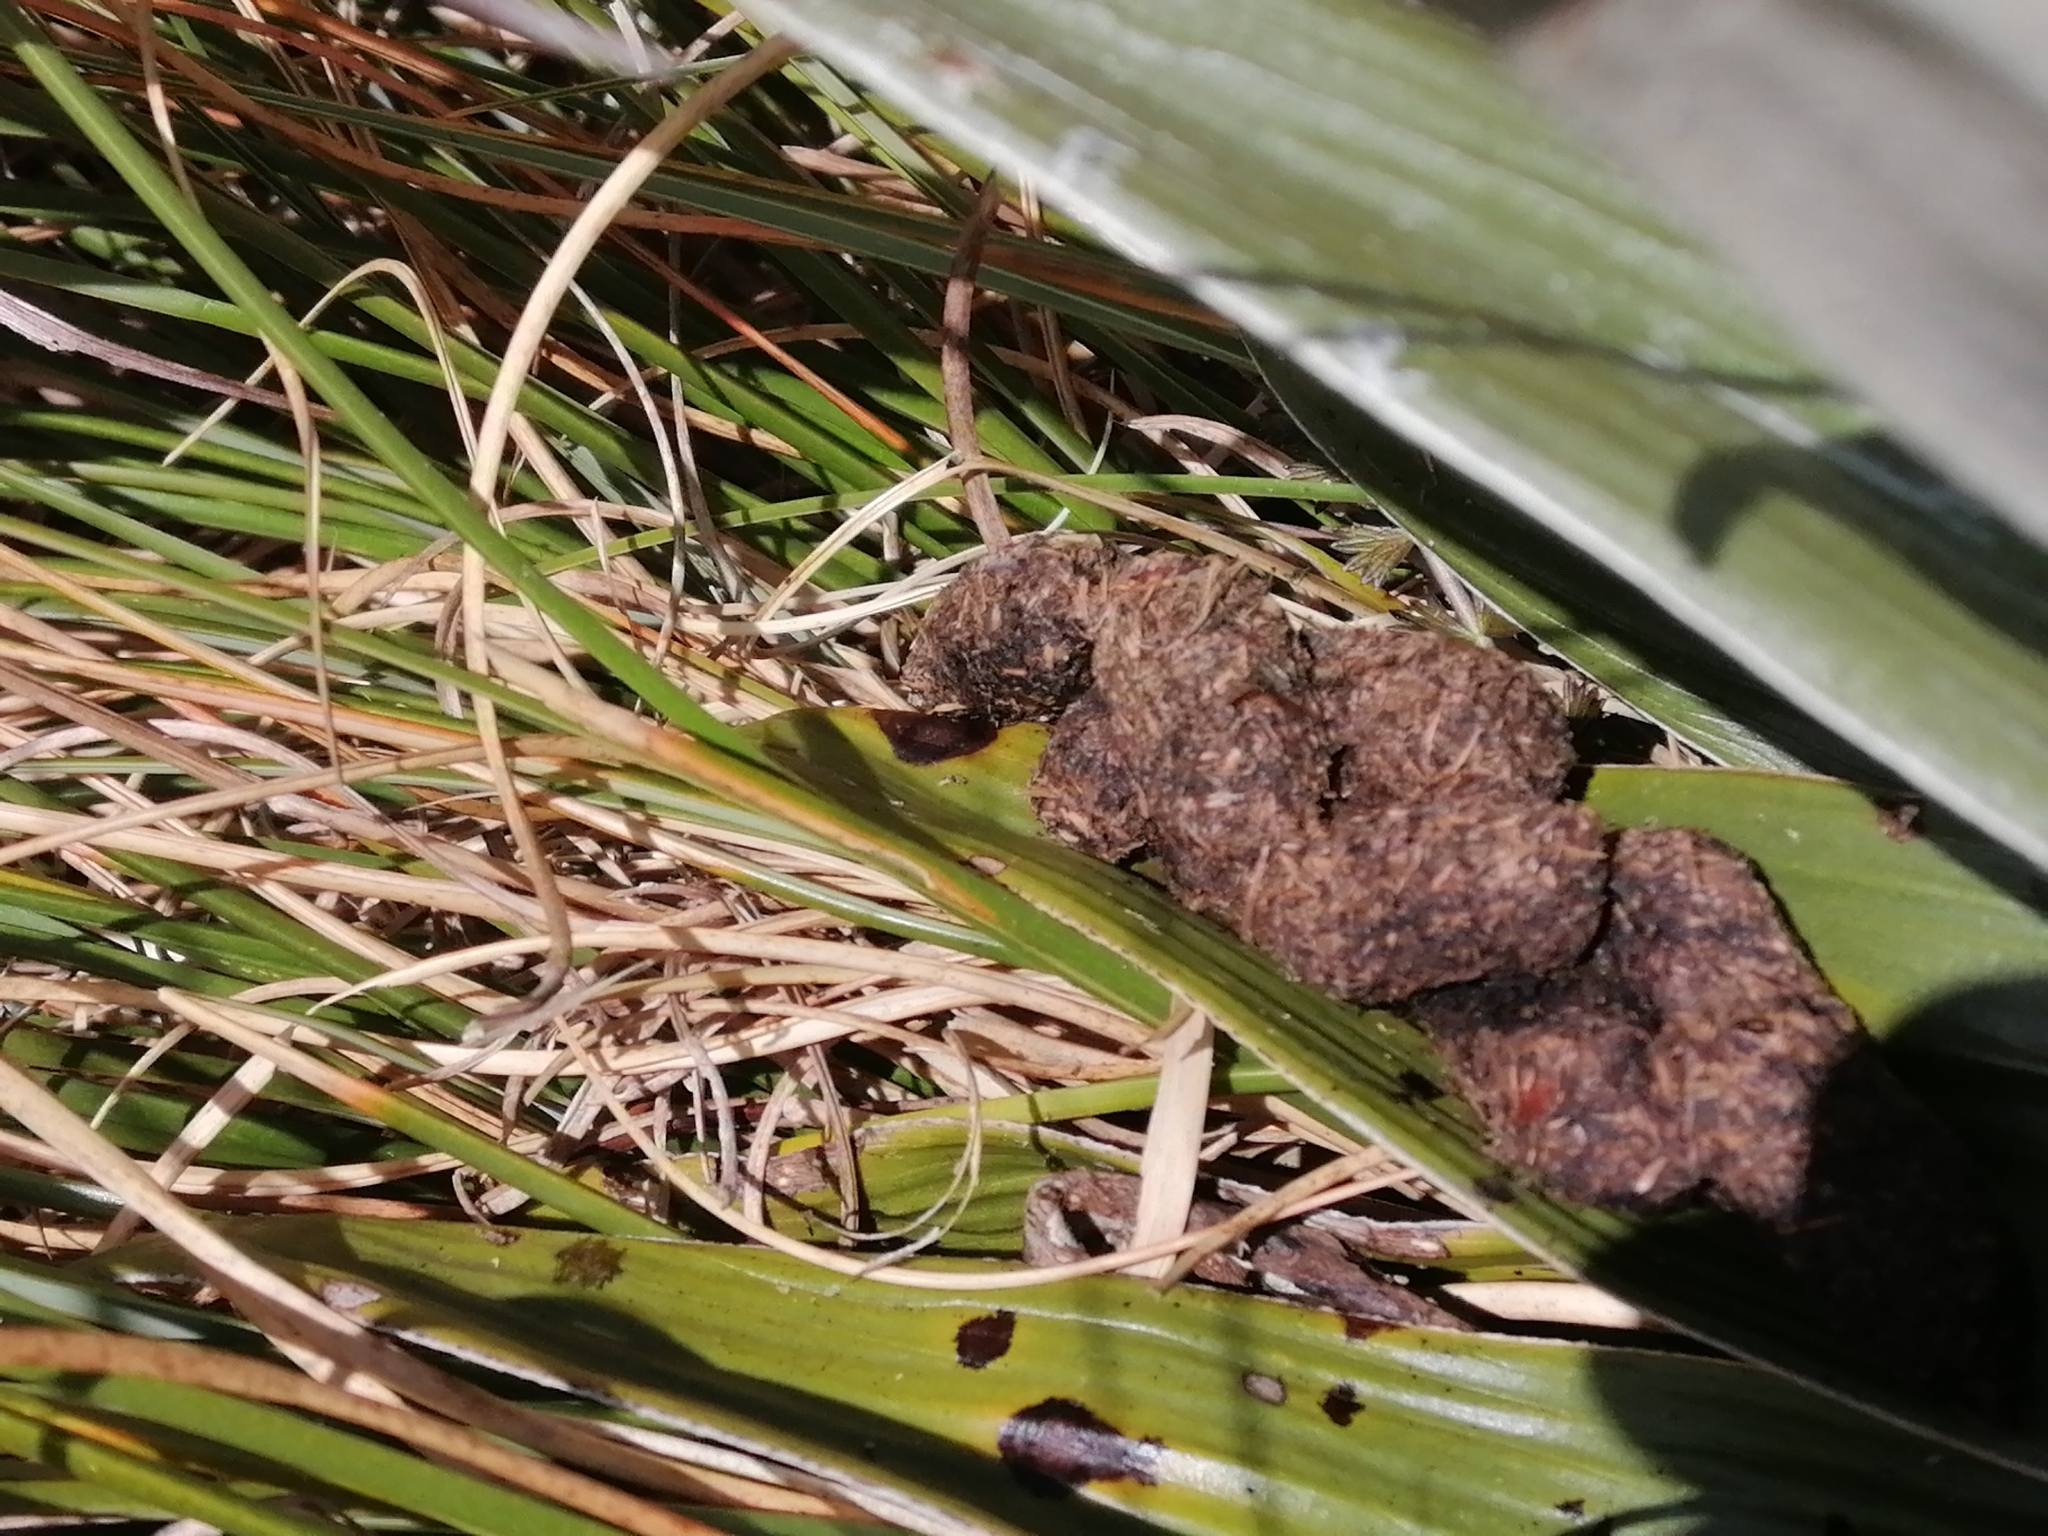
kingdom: Animalia
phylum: Chordata
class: Mammalia
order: Diprotodontia
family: Phalangeridae
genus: Trichosurus
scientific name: Trichosurus vulpecula
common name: Common brushtail
